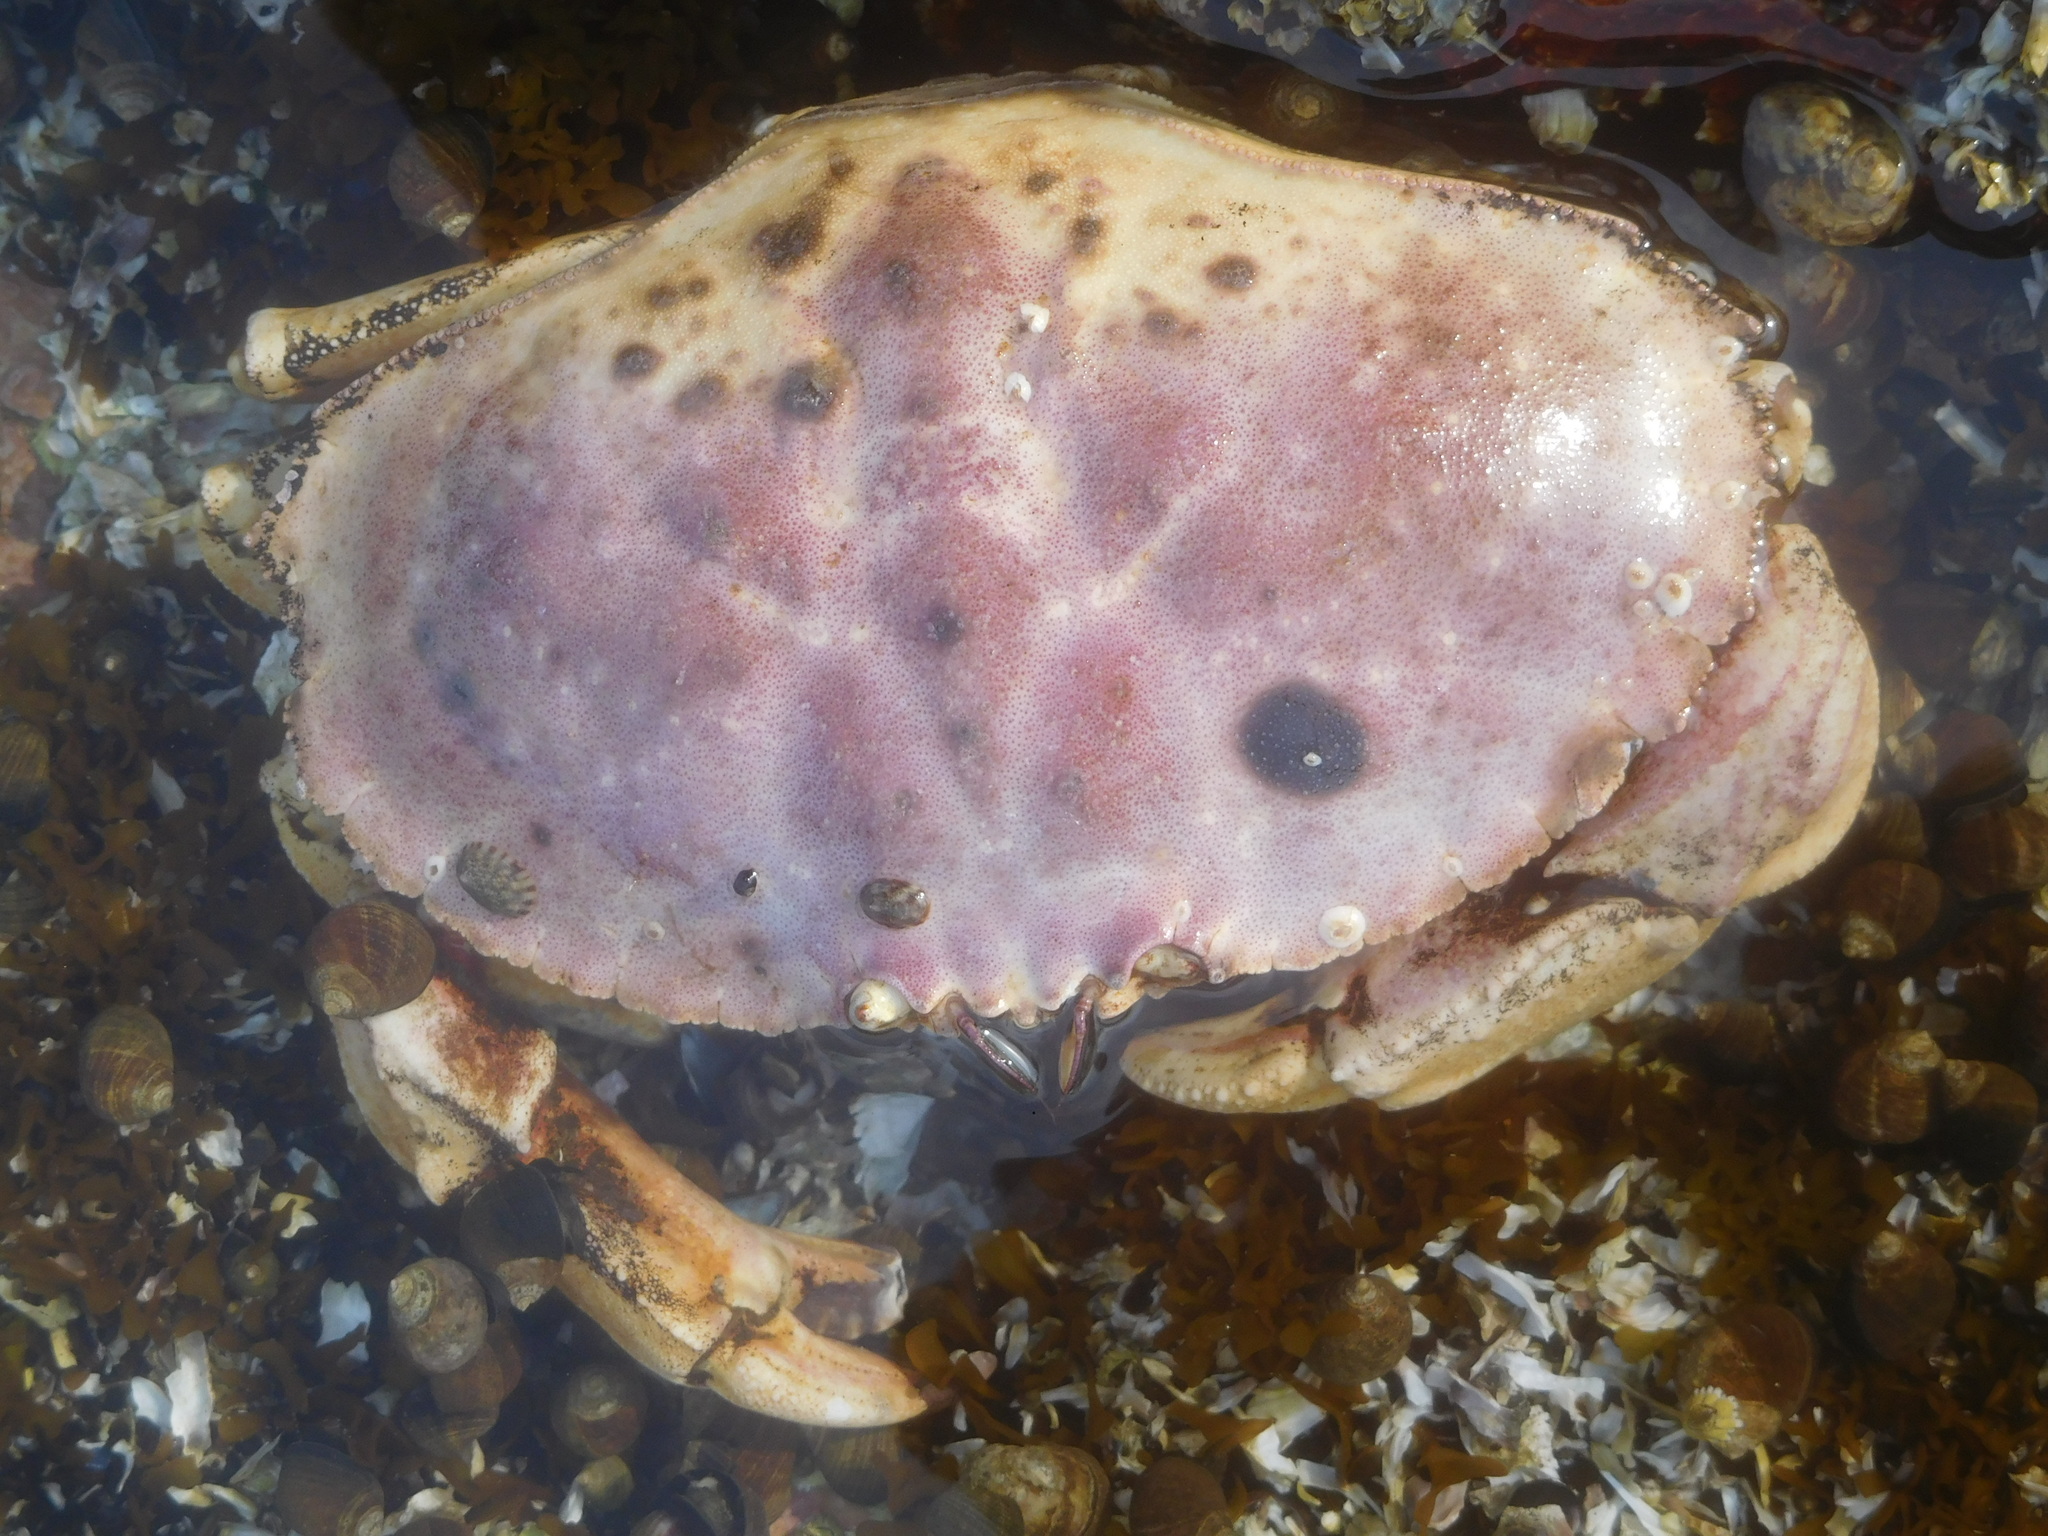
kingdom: Animalia
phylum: Arthropoda
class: Malacostraca
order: Decapoda
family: Cancridae
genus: Cancer
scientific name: Cancer borealis
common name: Jonah crab
